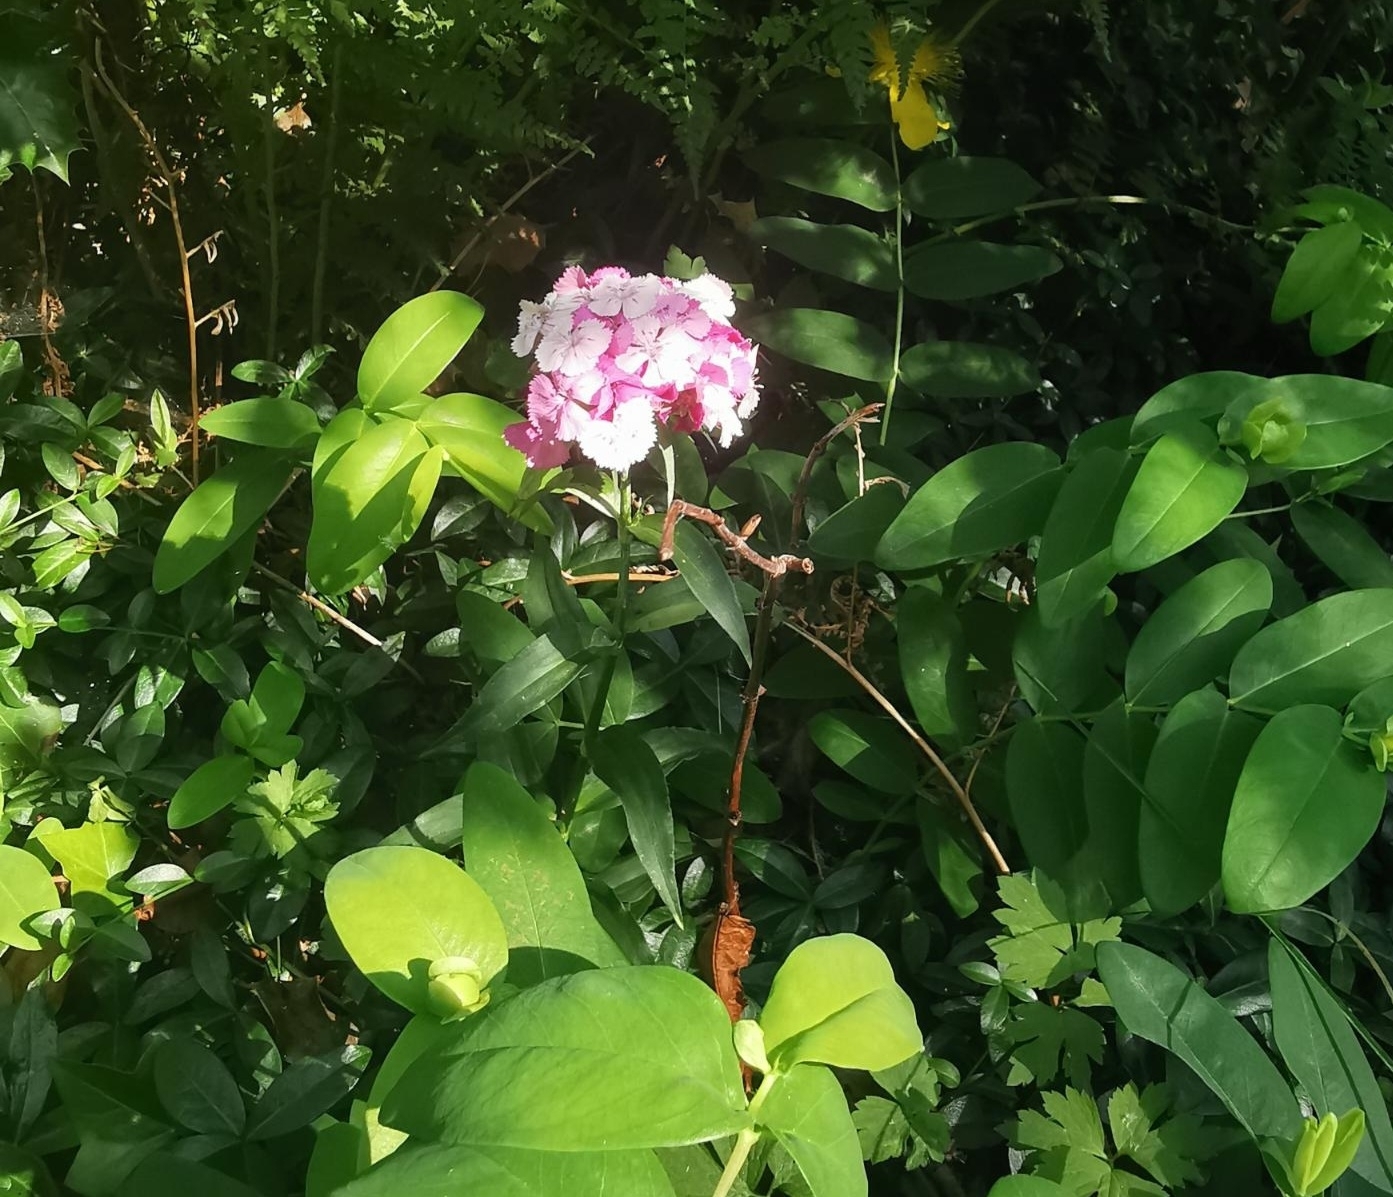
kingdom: Plantae
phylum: Tracheophyta
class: Magnoliopsida
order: Caryophyllales
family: Caryophyllaceae
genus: Dianthus
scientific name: Dianthus barbatus
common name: Sweet-william
